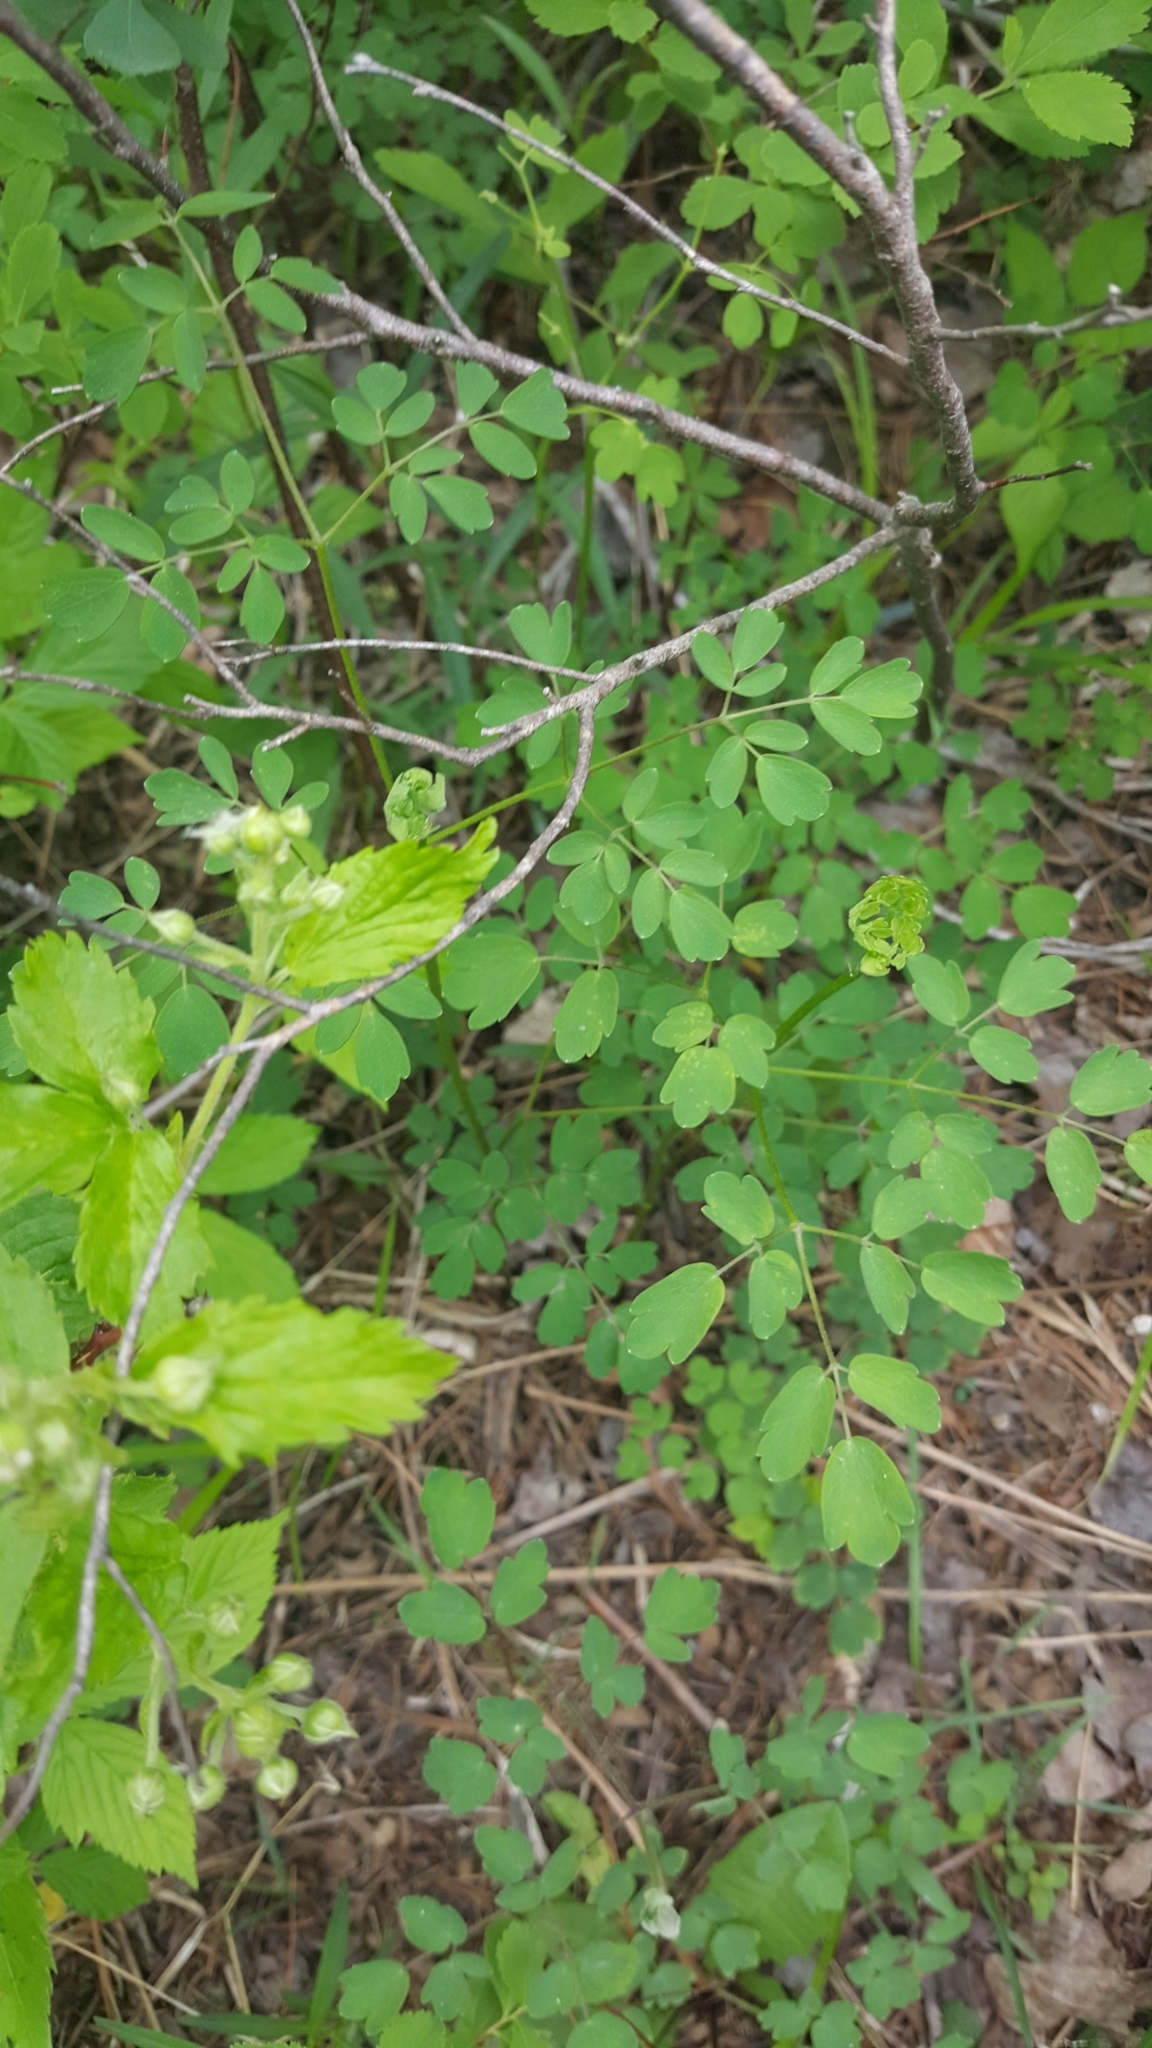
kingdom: Plantae
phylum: Tracheophyta
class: Magnoliopsida
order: Ranunculales
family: Ranunculaceae
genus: Thalictrum
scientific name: Thalictrum pubescens
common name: King-of-the-meadow
